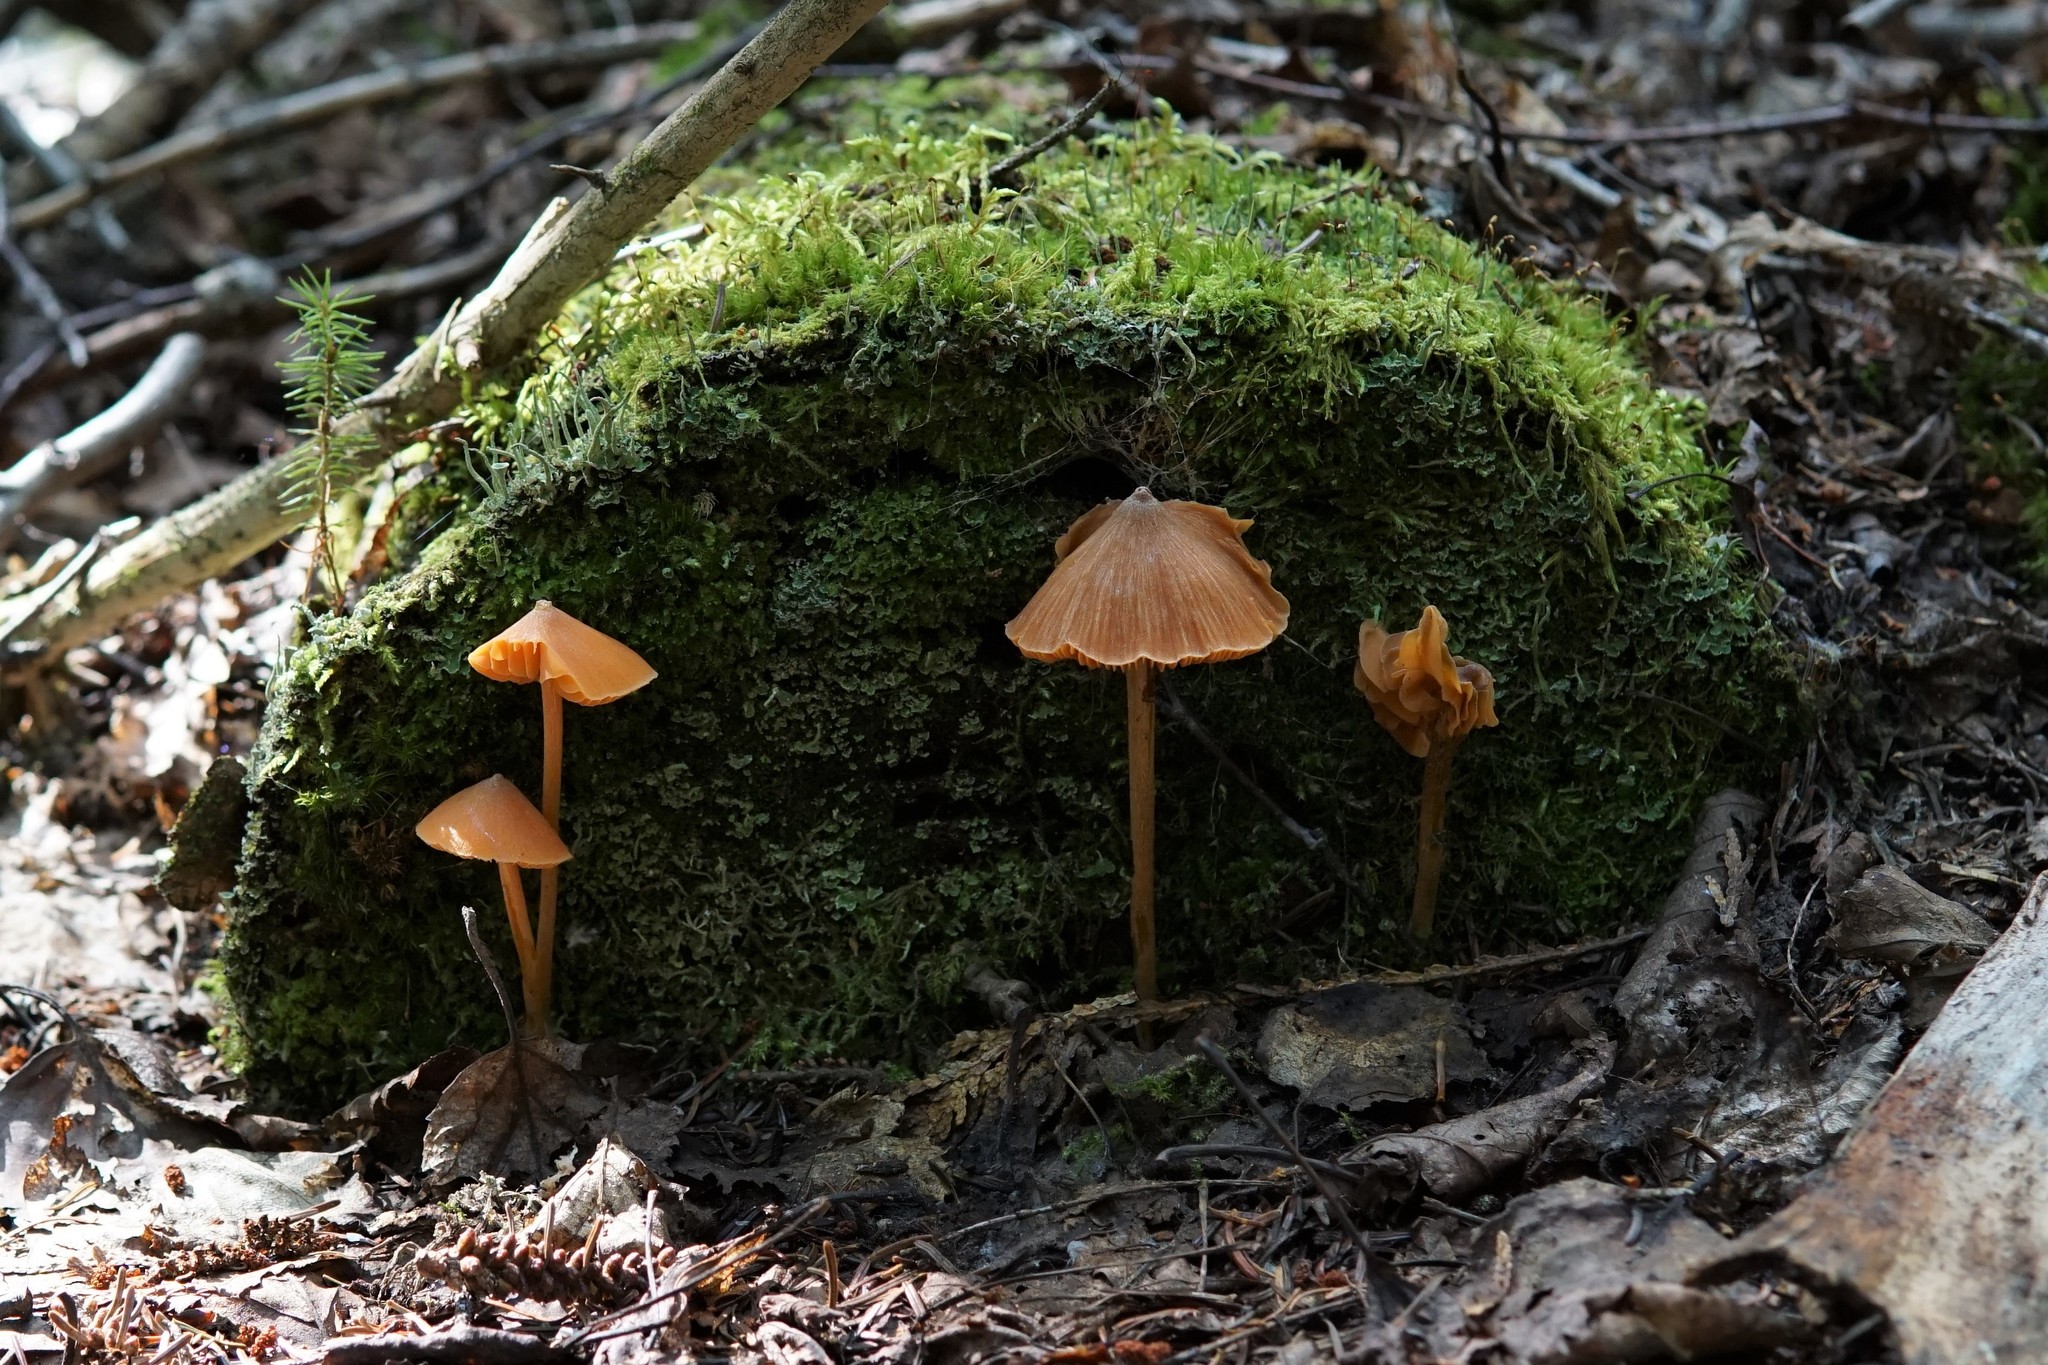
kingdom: Fungi
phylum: Basidiomycota
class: Agaricomycetes
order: Agaricales
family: Entolomataceae
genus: Entoloma
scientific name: Entoloma quadratum
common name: Salmon pinkgill
